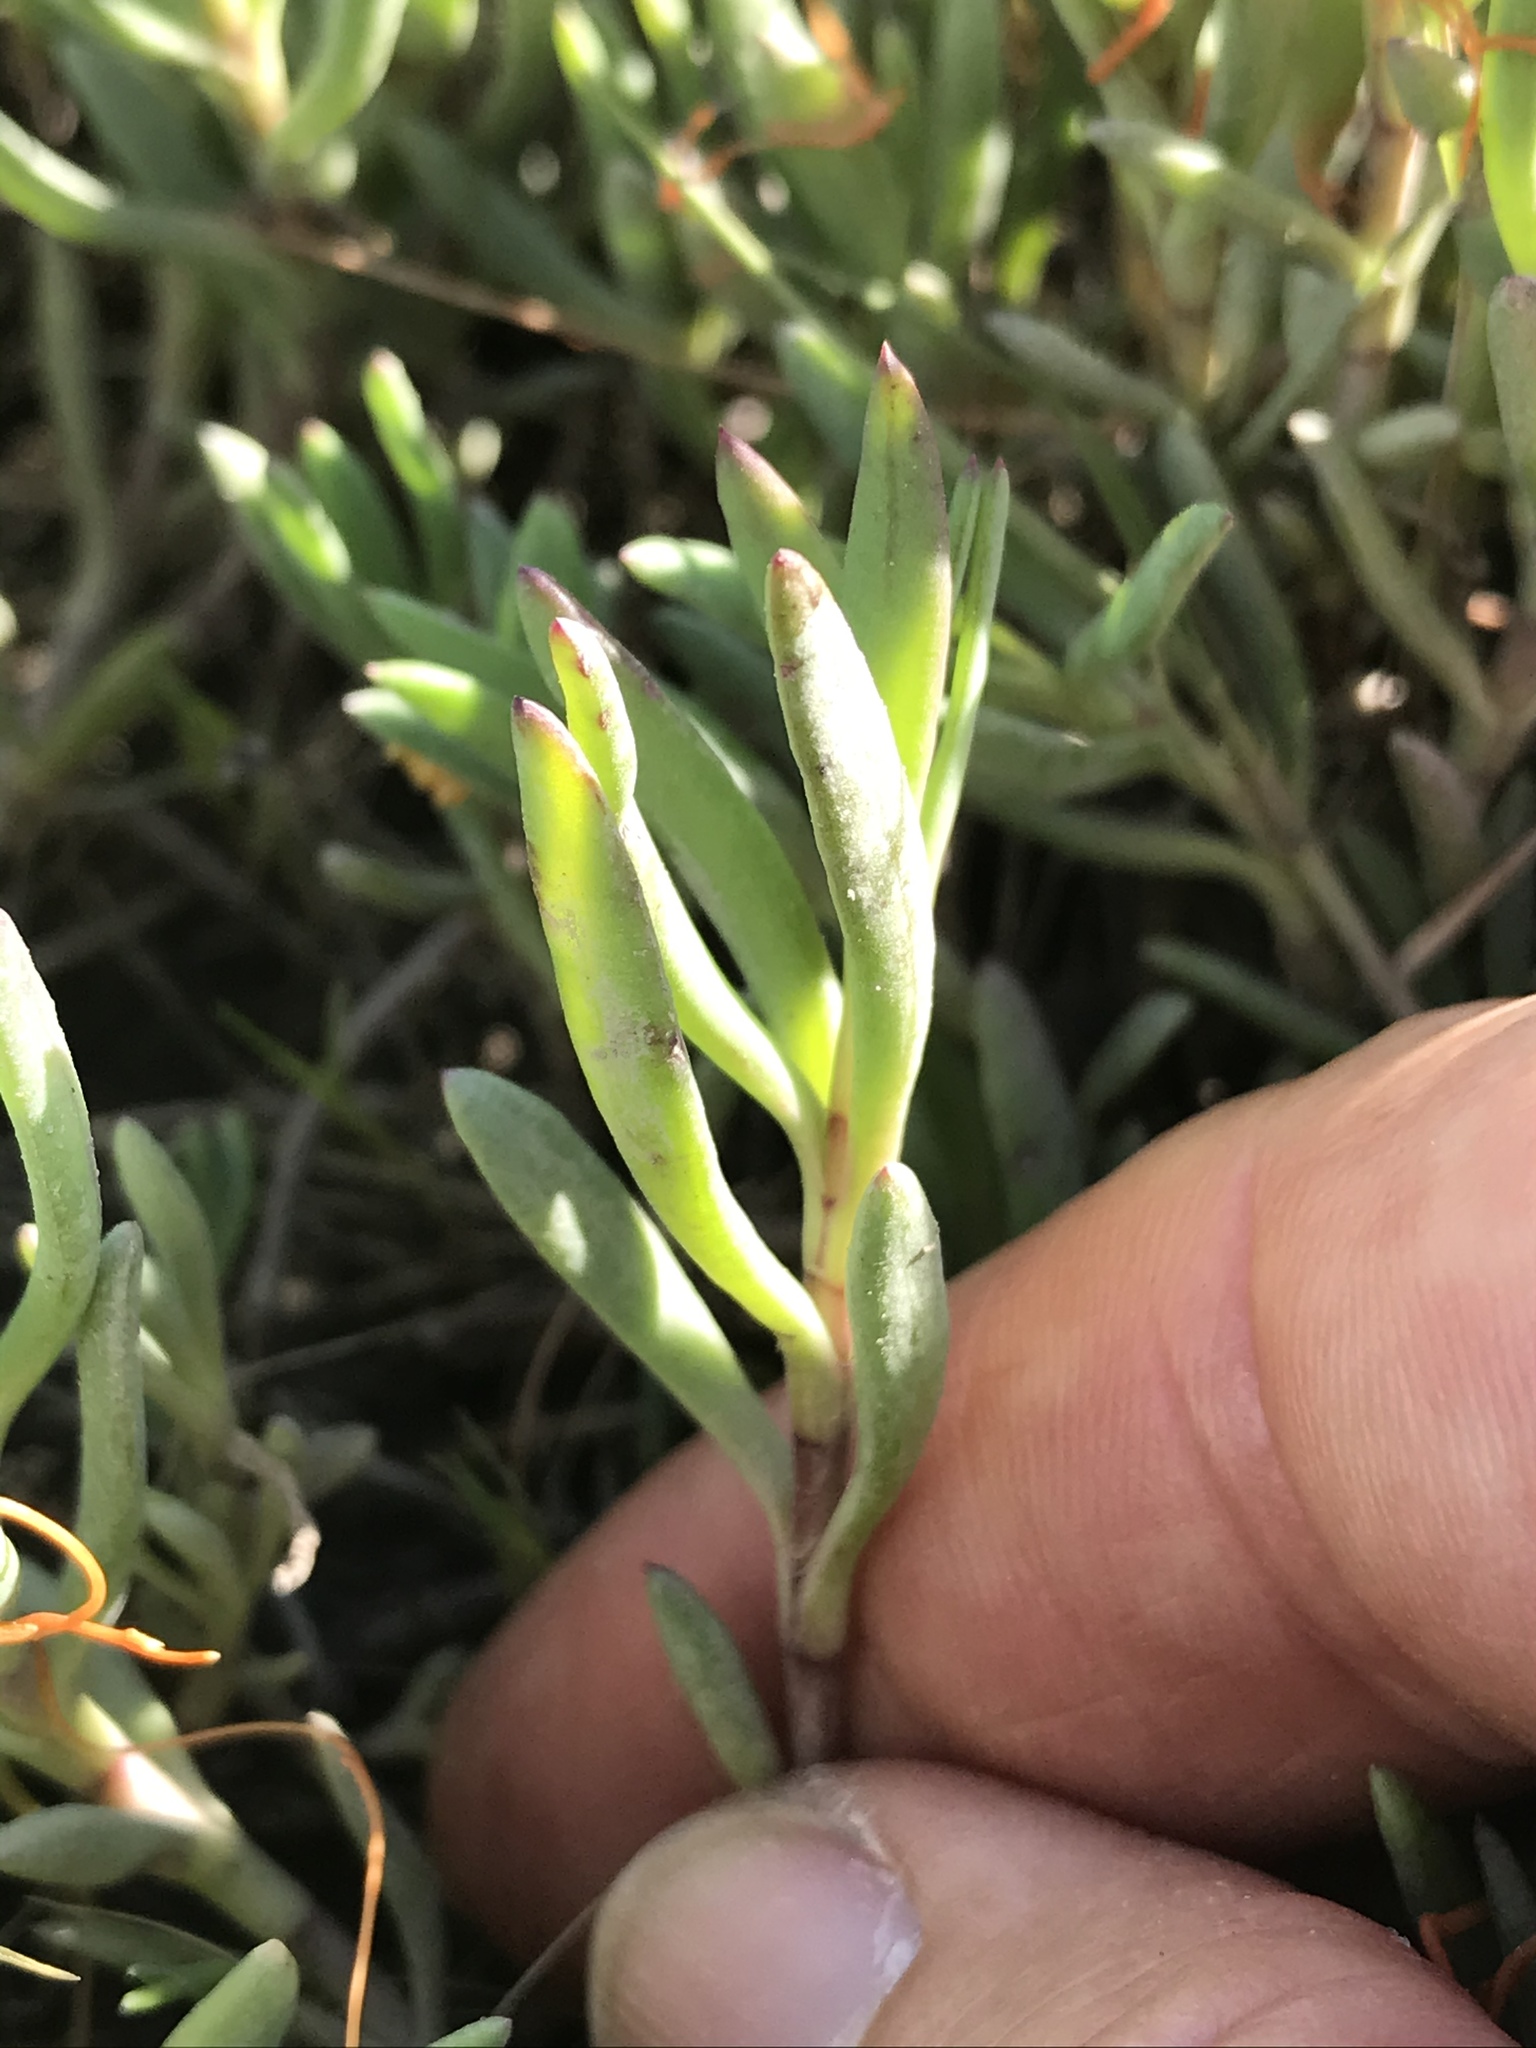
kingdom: Plantae
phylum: Tracheophyta
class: Magnoliopsida
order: Asterales
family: Asteraceae
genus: Jaumea
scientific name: Jaumea carnosa
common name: Fleshy jaumea
